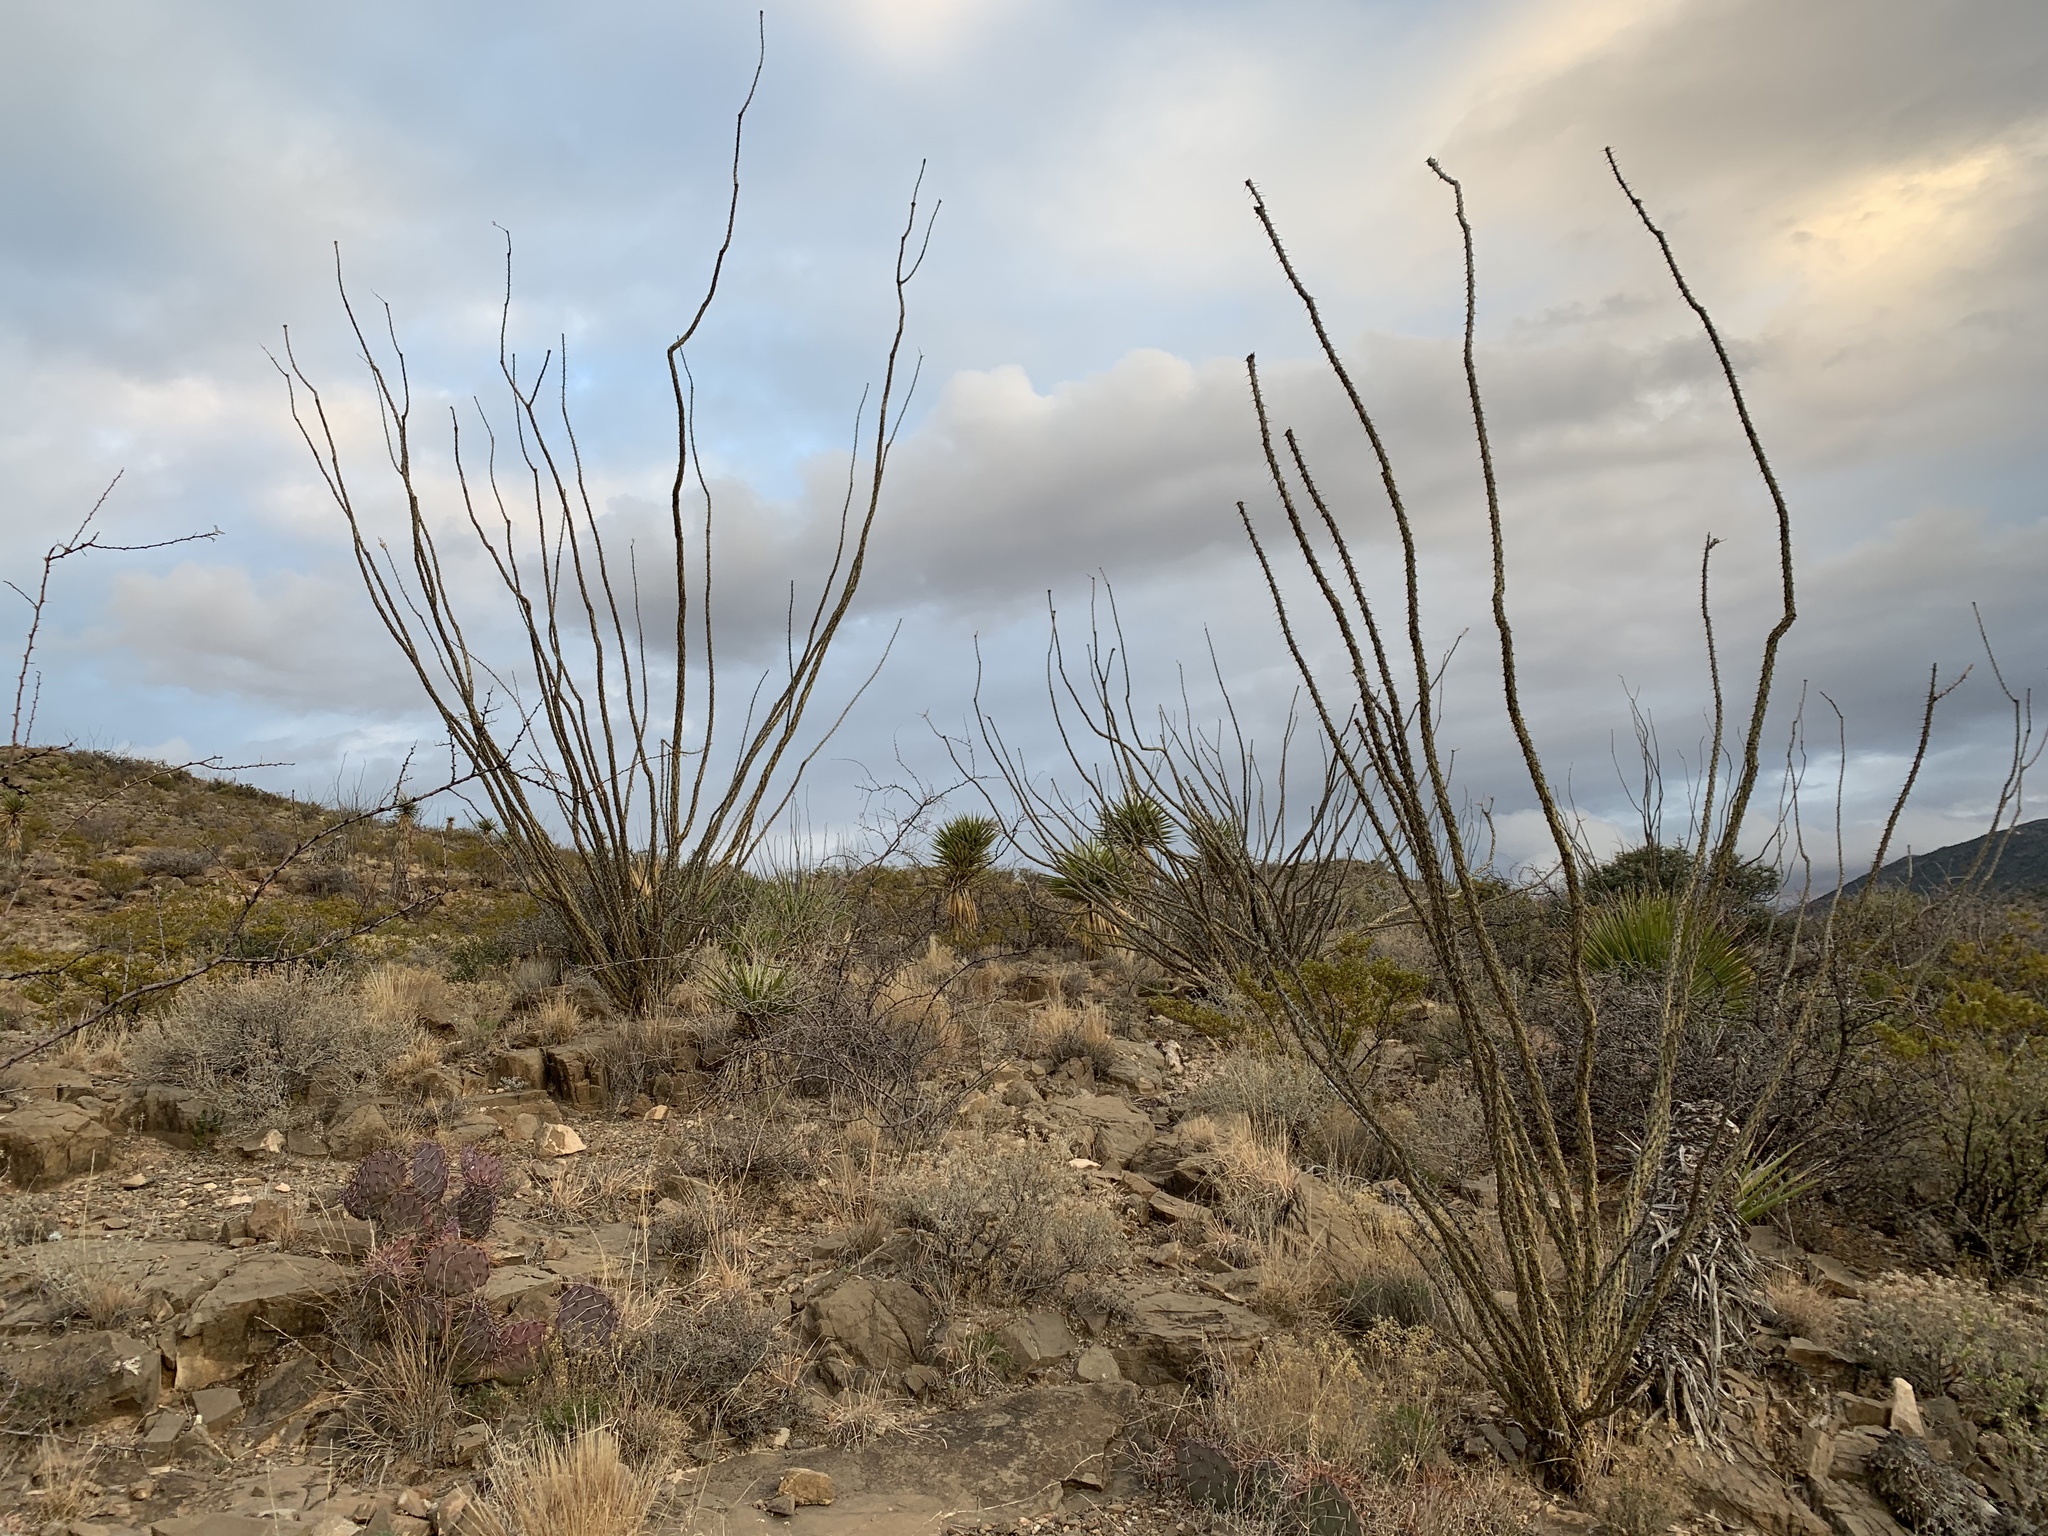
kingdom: Plantae
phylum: Tracheophyta
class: Magnoliopsida
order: Ericales
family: Fouquieriaceae
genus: Fouquieria
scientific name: Fouquieria splendens
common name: Vine-cactus
